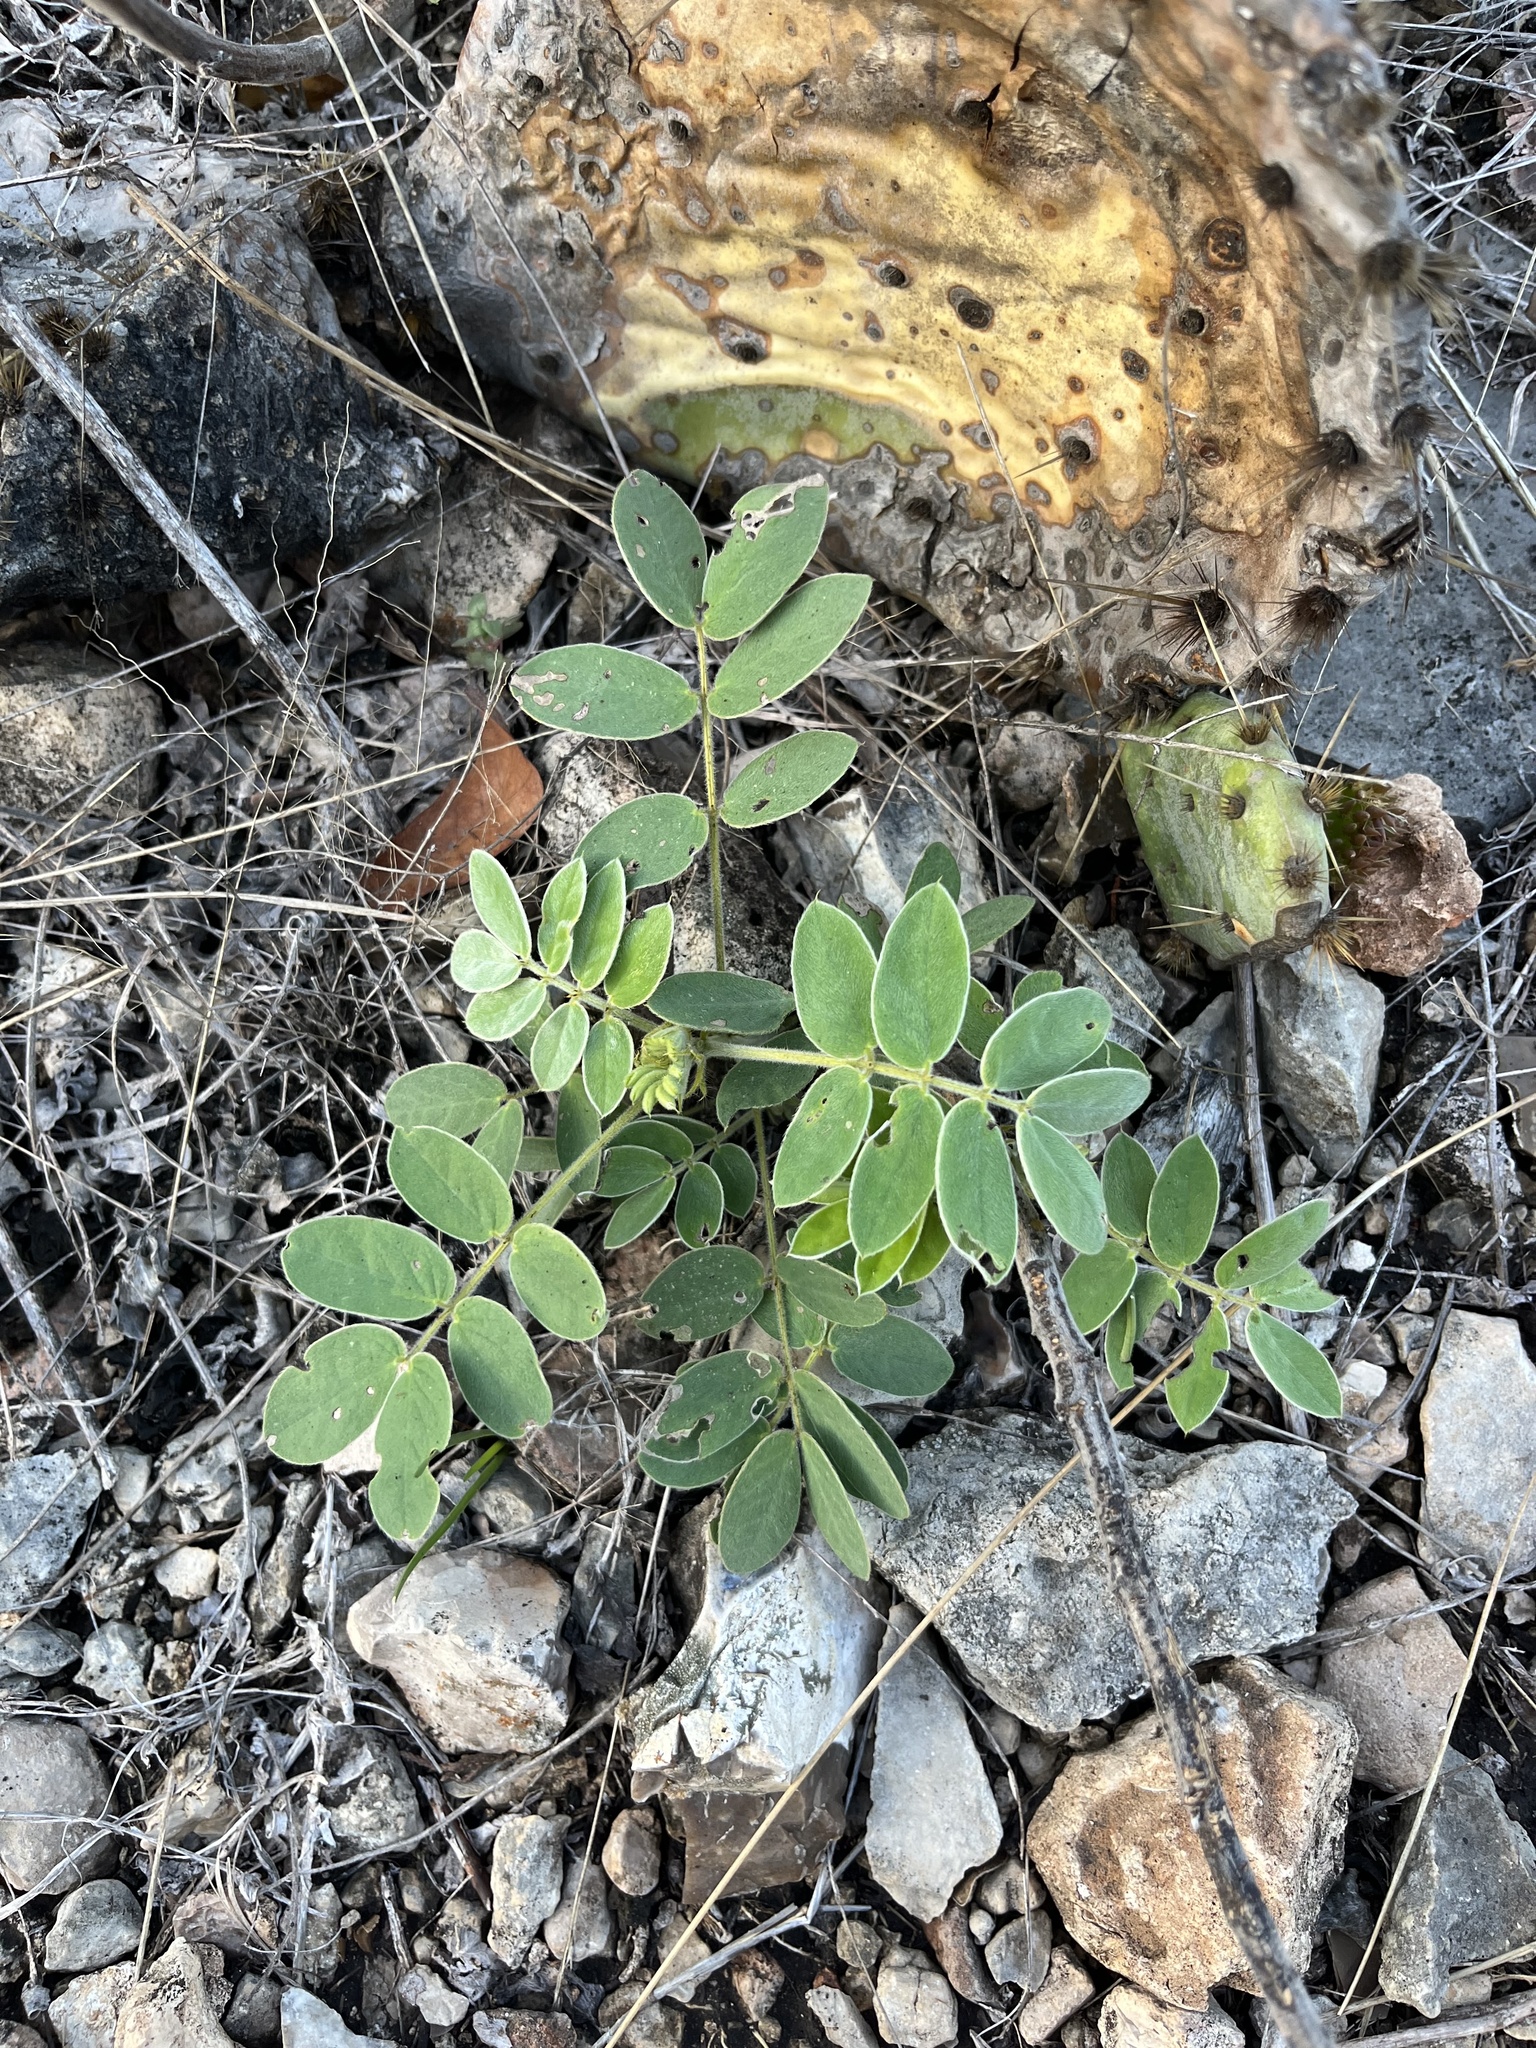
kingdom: Plantae
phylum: Tracheophyta
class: Magnoliopsida
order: Fabales
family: Fabaceae
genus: Senna
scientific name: Senna lindheimeriana
